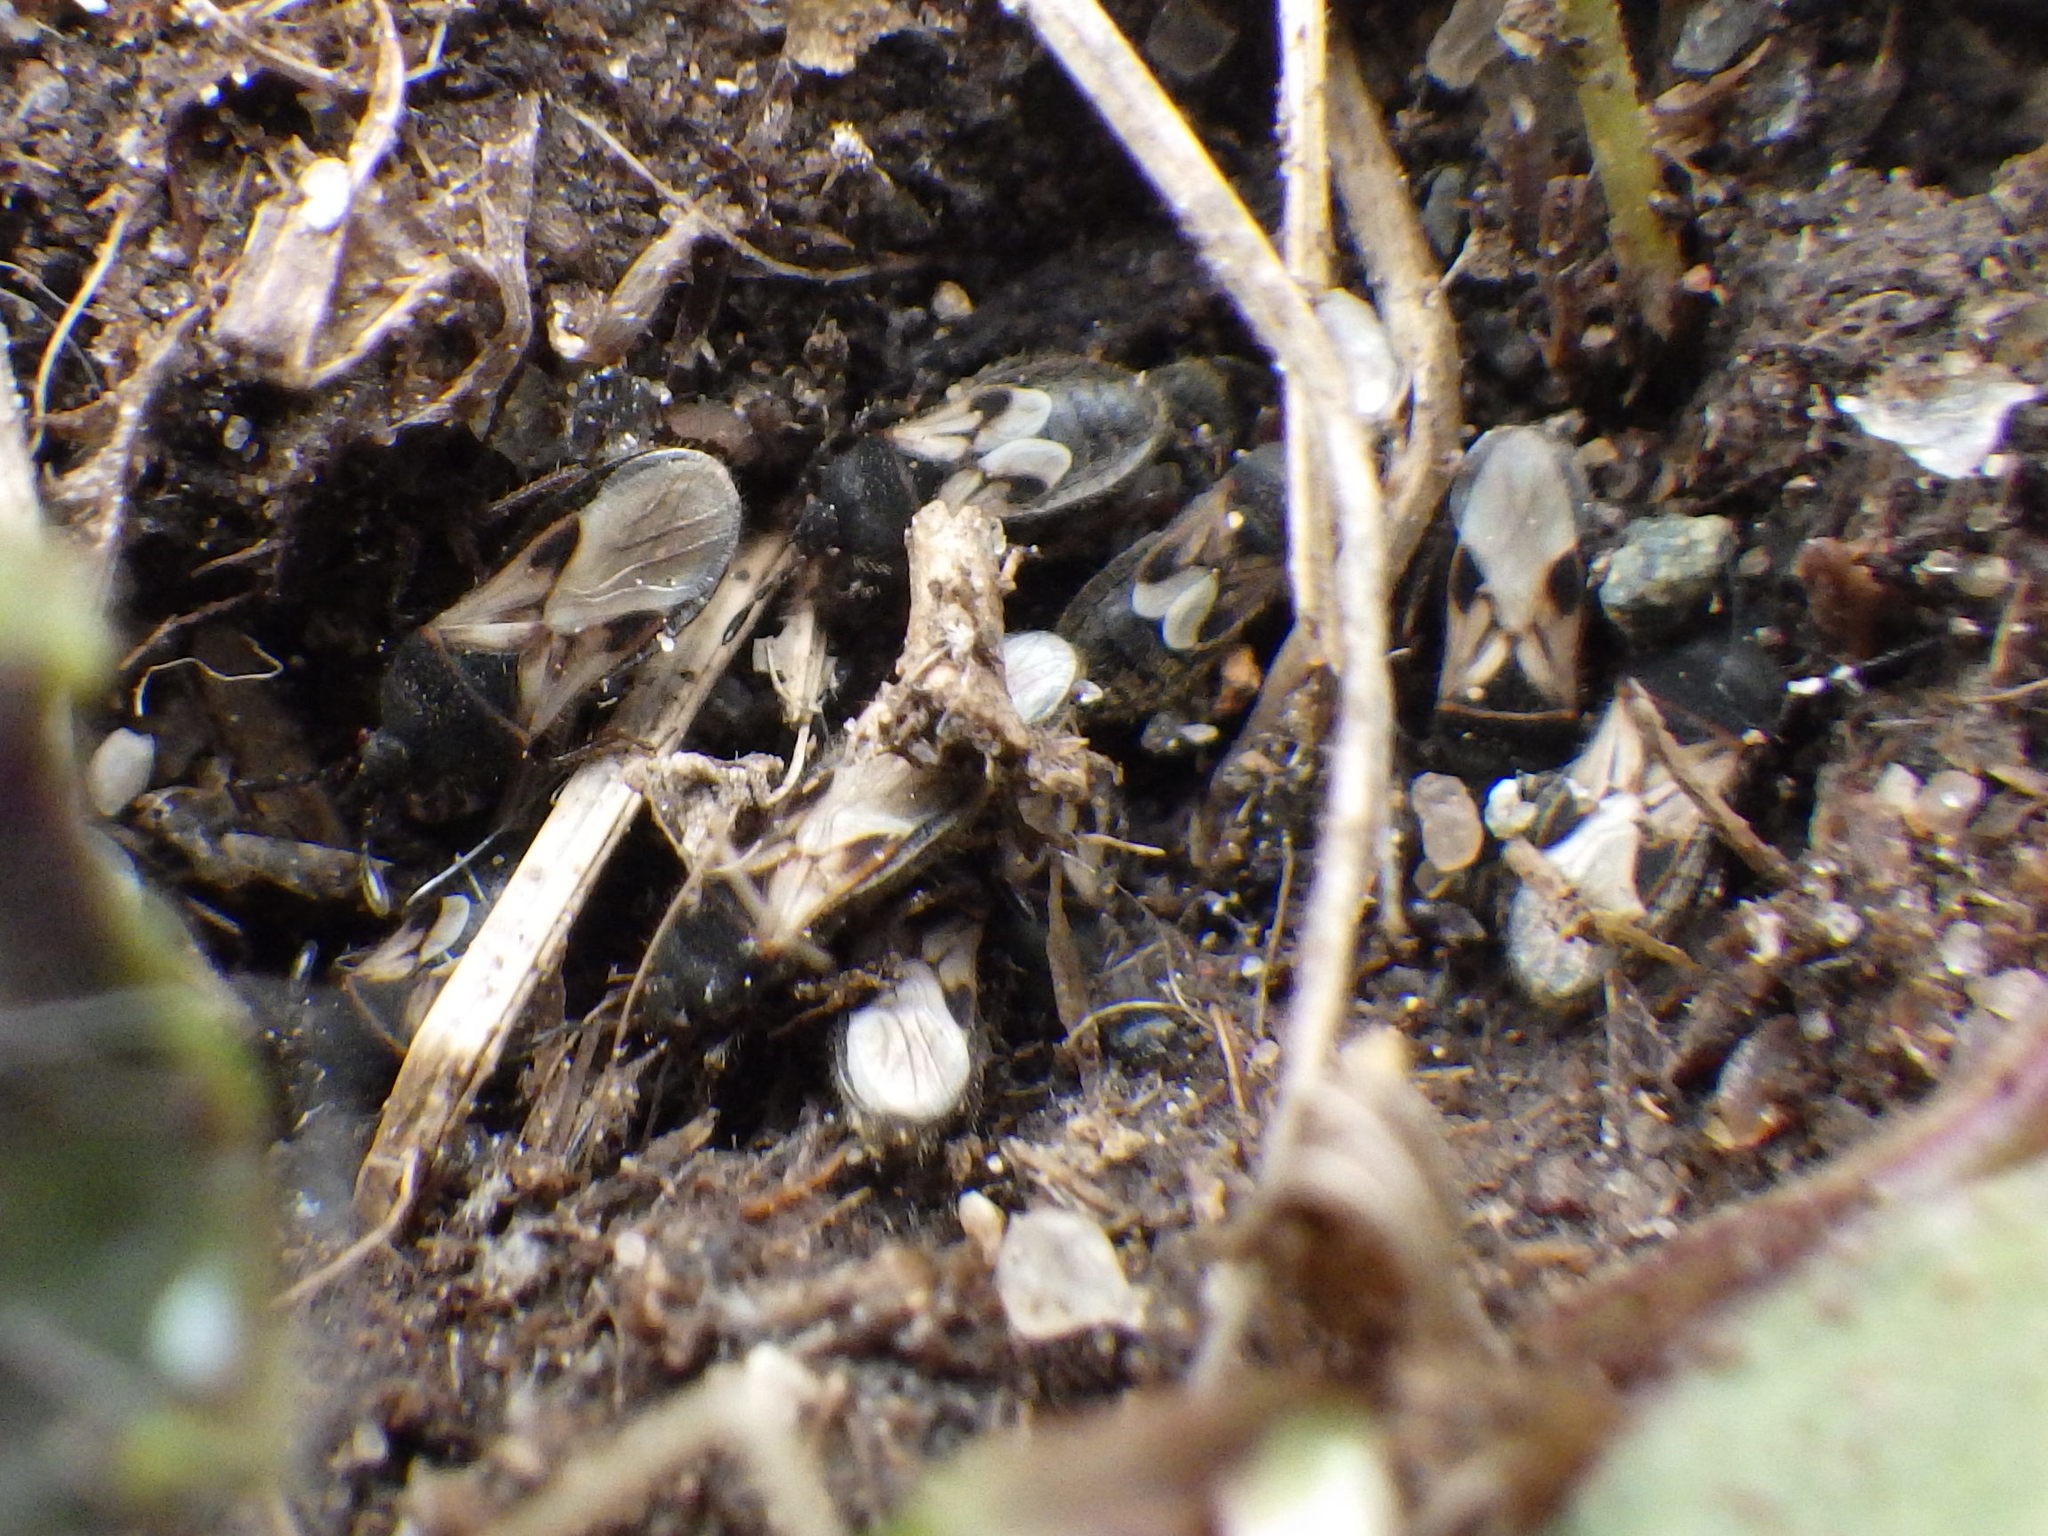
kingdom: Animalia
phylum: Arthropoda
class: Insecta
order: Hemiptera
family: Blissidae
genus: Blissus
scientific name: Blissus leucopterus
